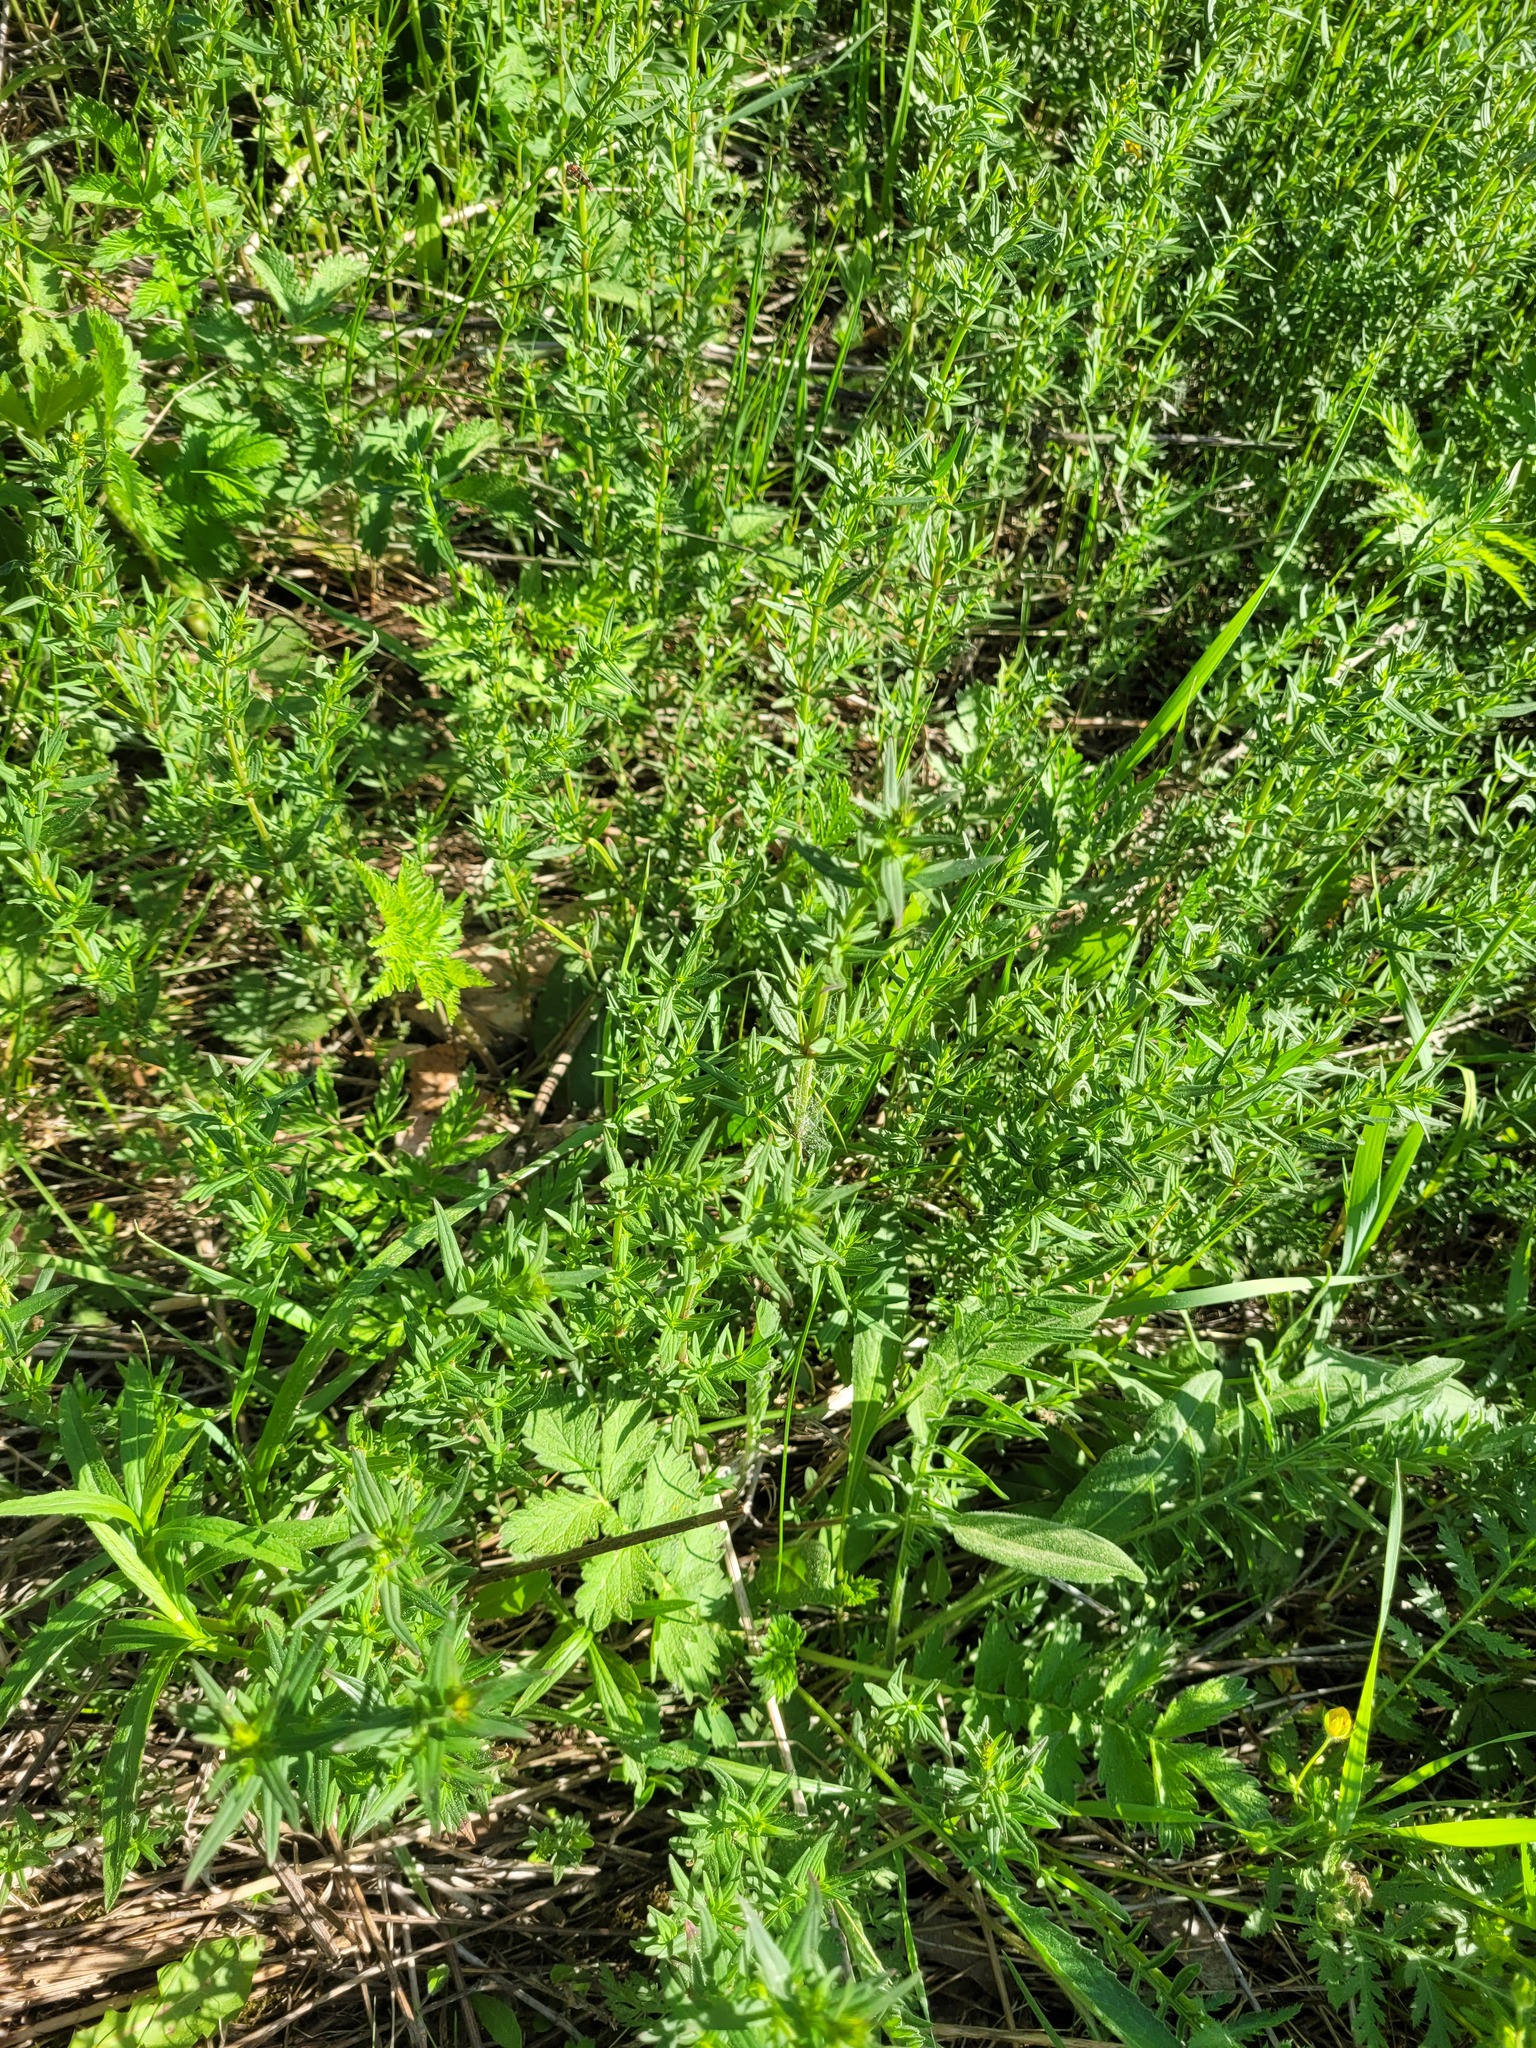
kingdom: Plantae
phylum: Tracheophyta
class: Magnoliopsida
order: Gentianales
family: Rubiaceae
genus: Galium
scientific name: Galium boreale
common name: Northern bedstraw
